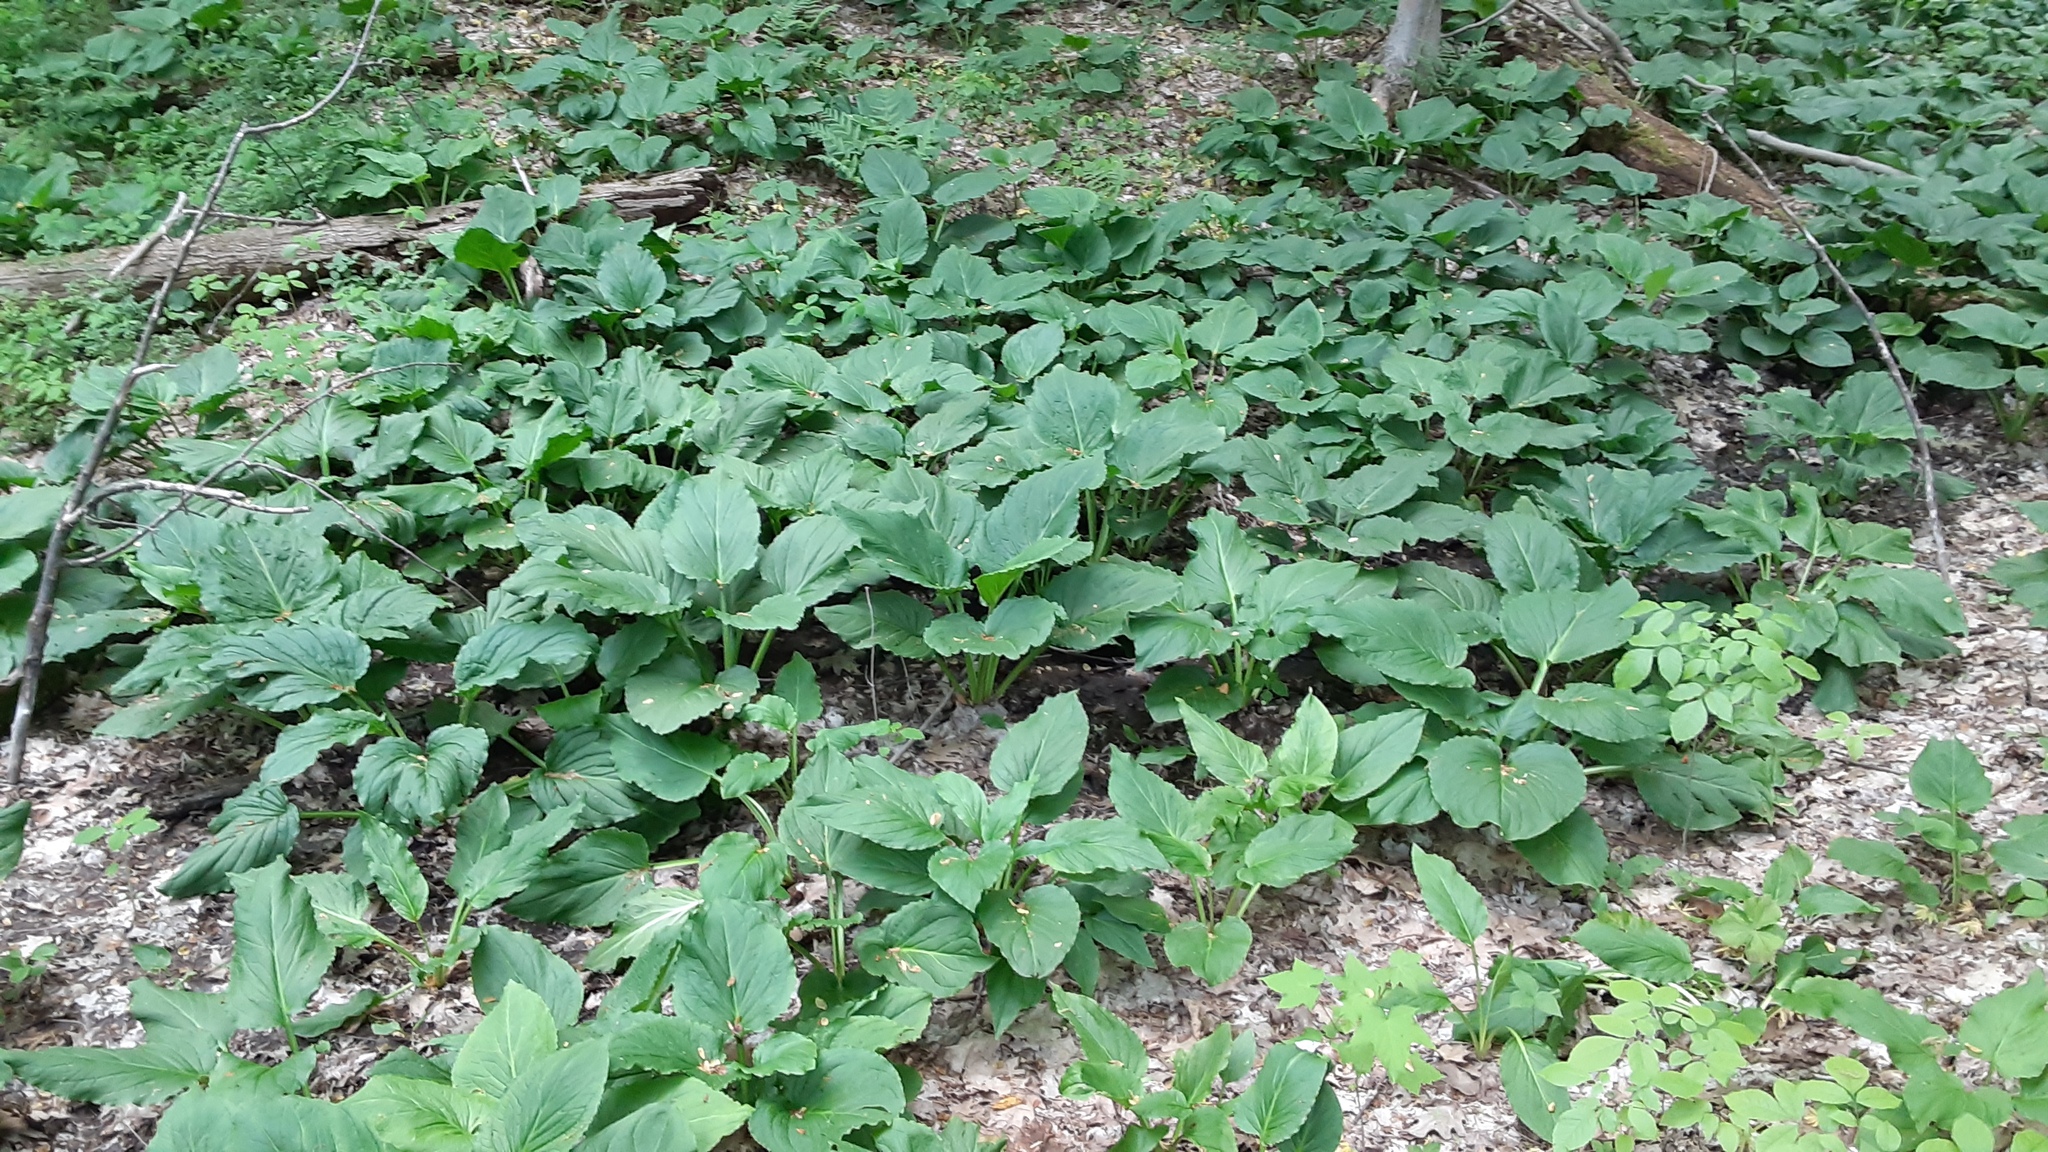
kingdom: Plantae
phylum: Tracheophyta
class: Liliopsida
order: Alismatales
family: Araceae
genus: Symplocarpus
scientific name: Symplocarpus foetidus
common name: Eastern skunk cabbage
